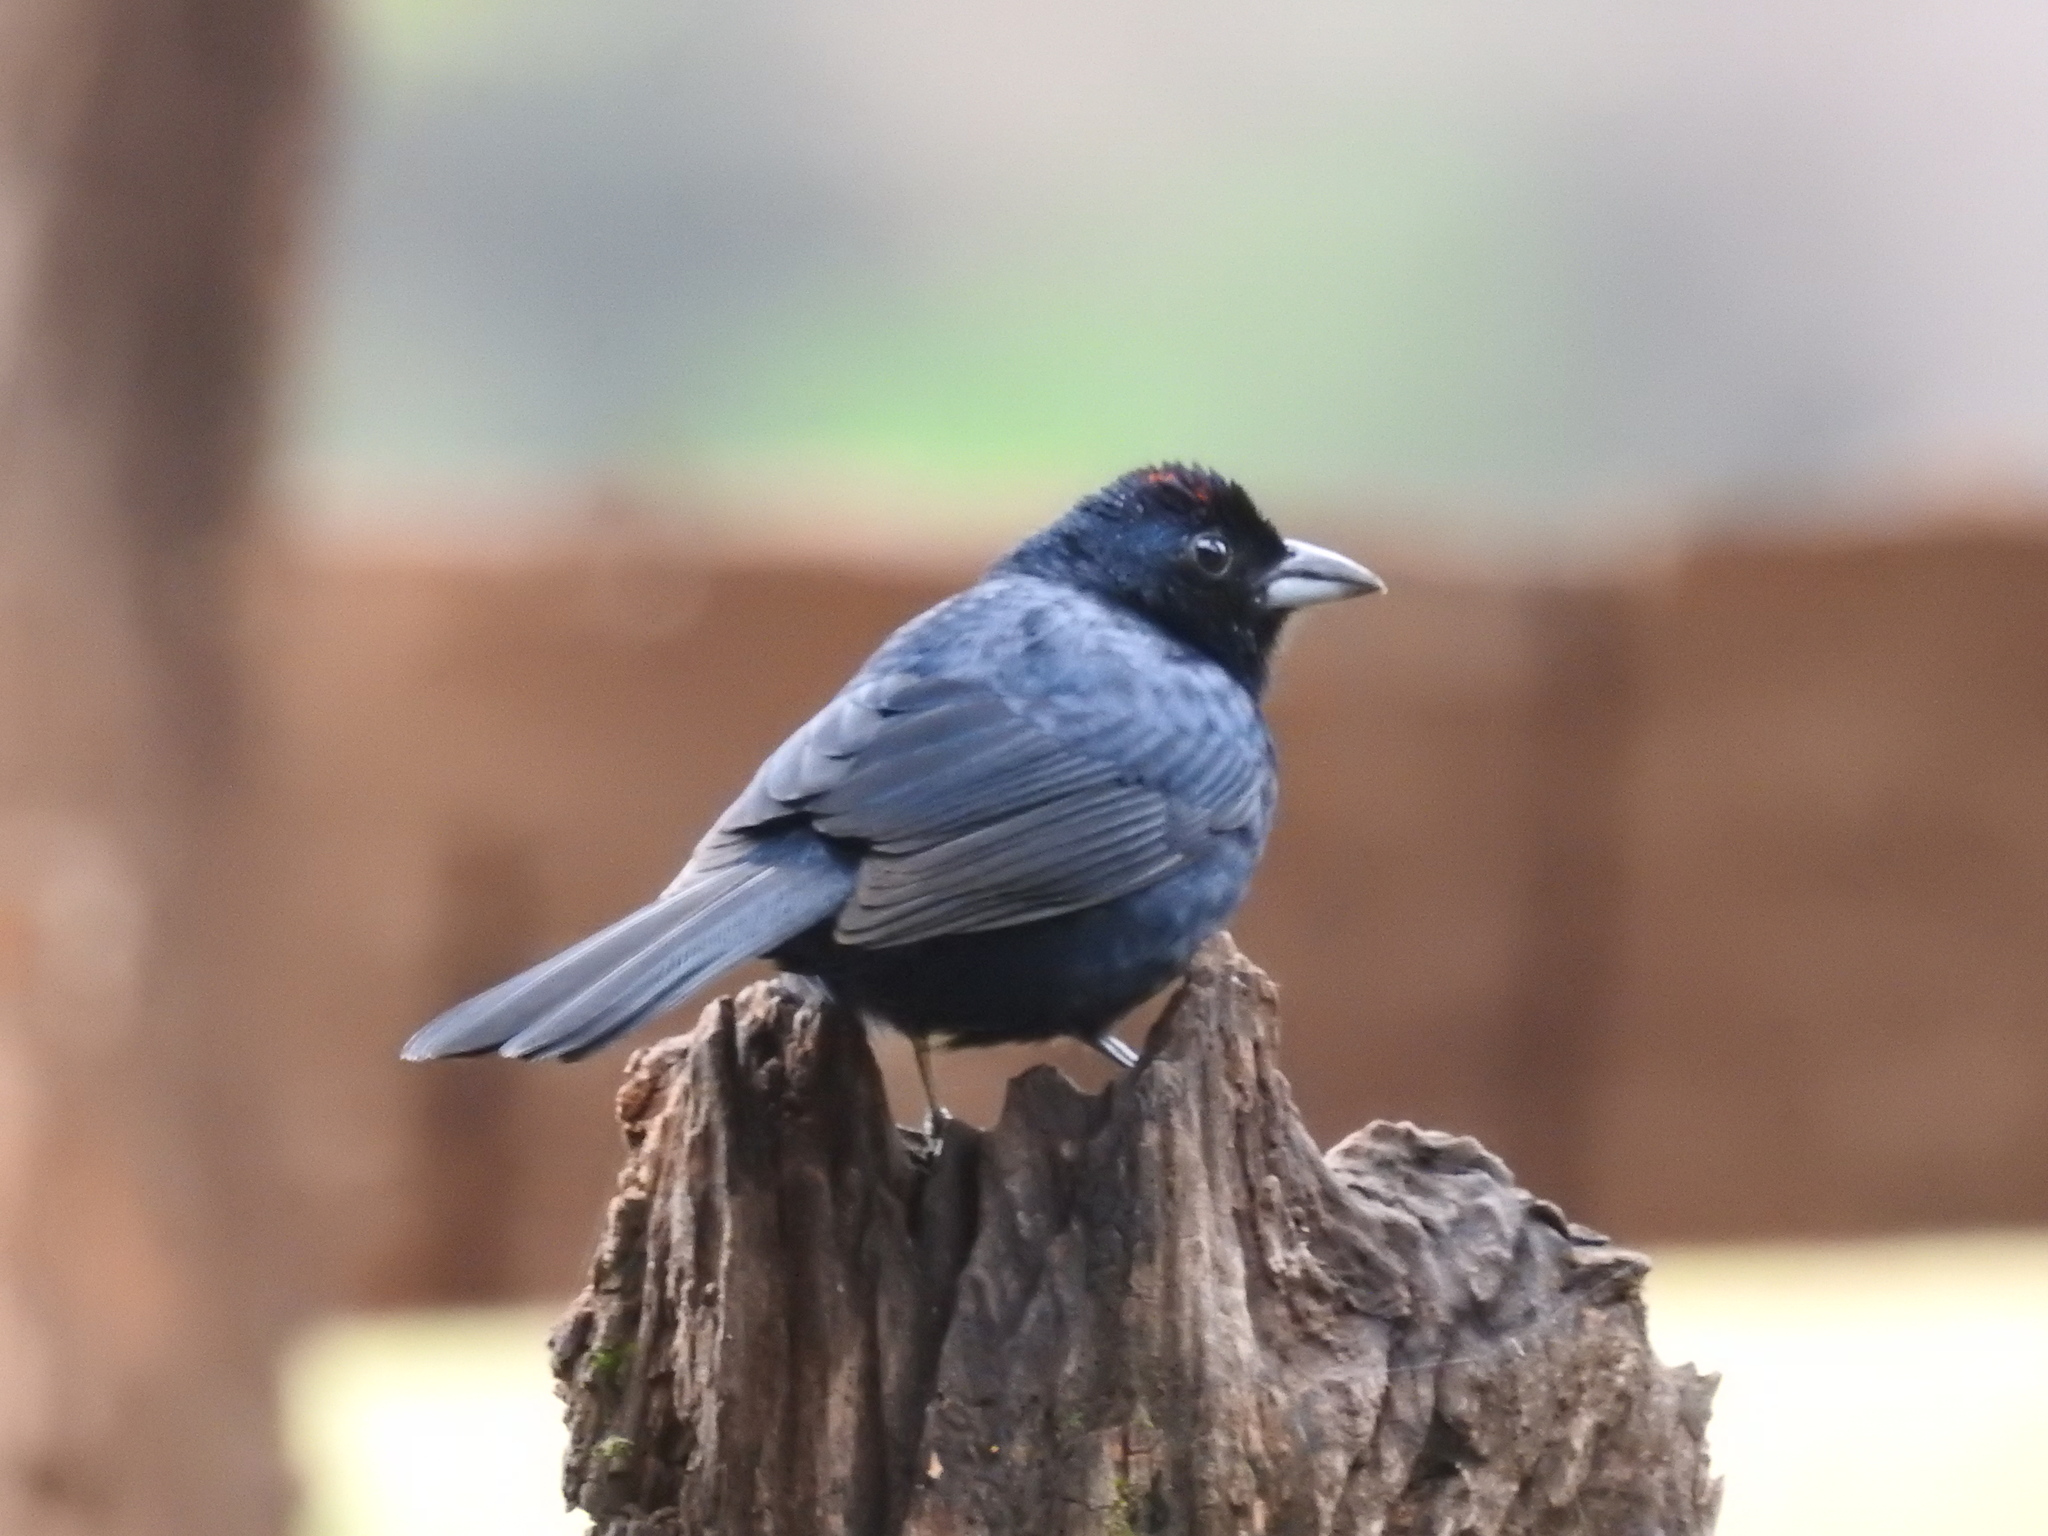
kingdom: Animalia
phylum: Chordata
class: Aves
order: Passeriformes
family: Thraupidae
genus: Tachyphonus
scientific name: Tachyphonus coronatus
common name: Ruby-crowned tanager
